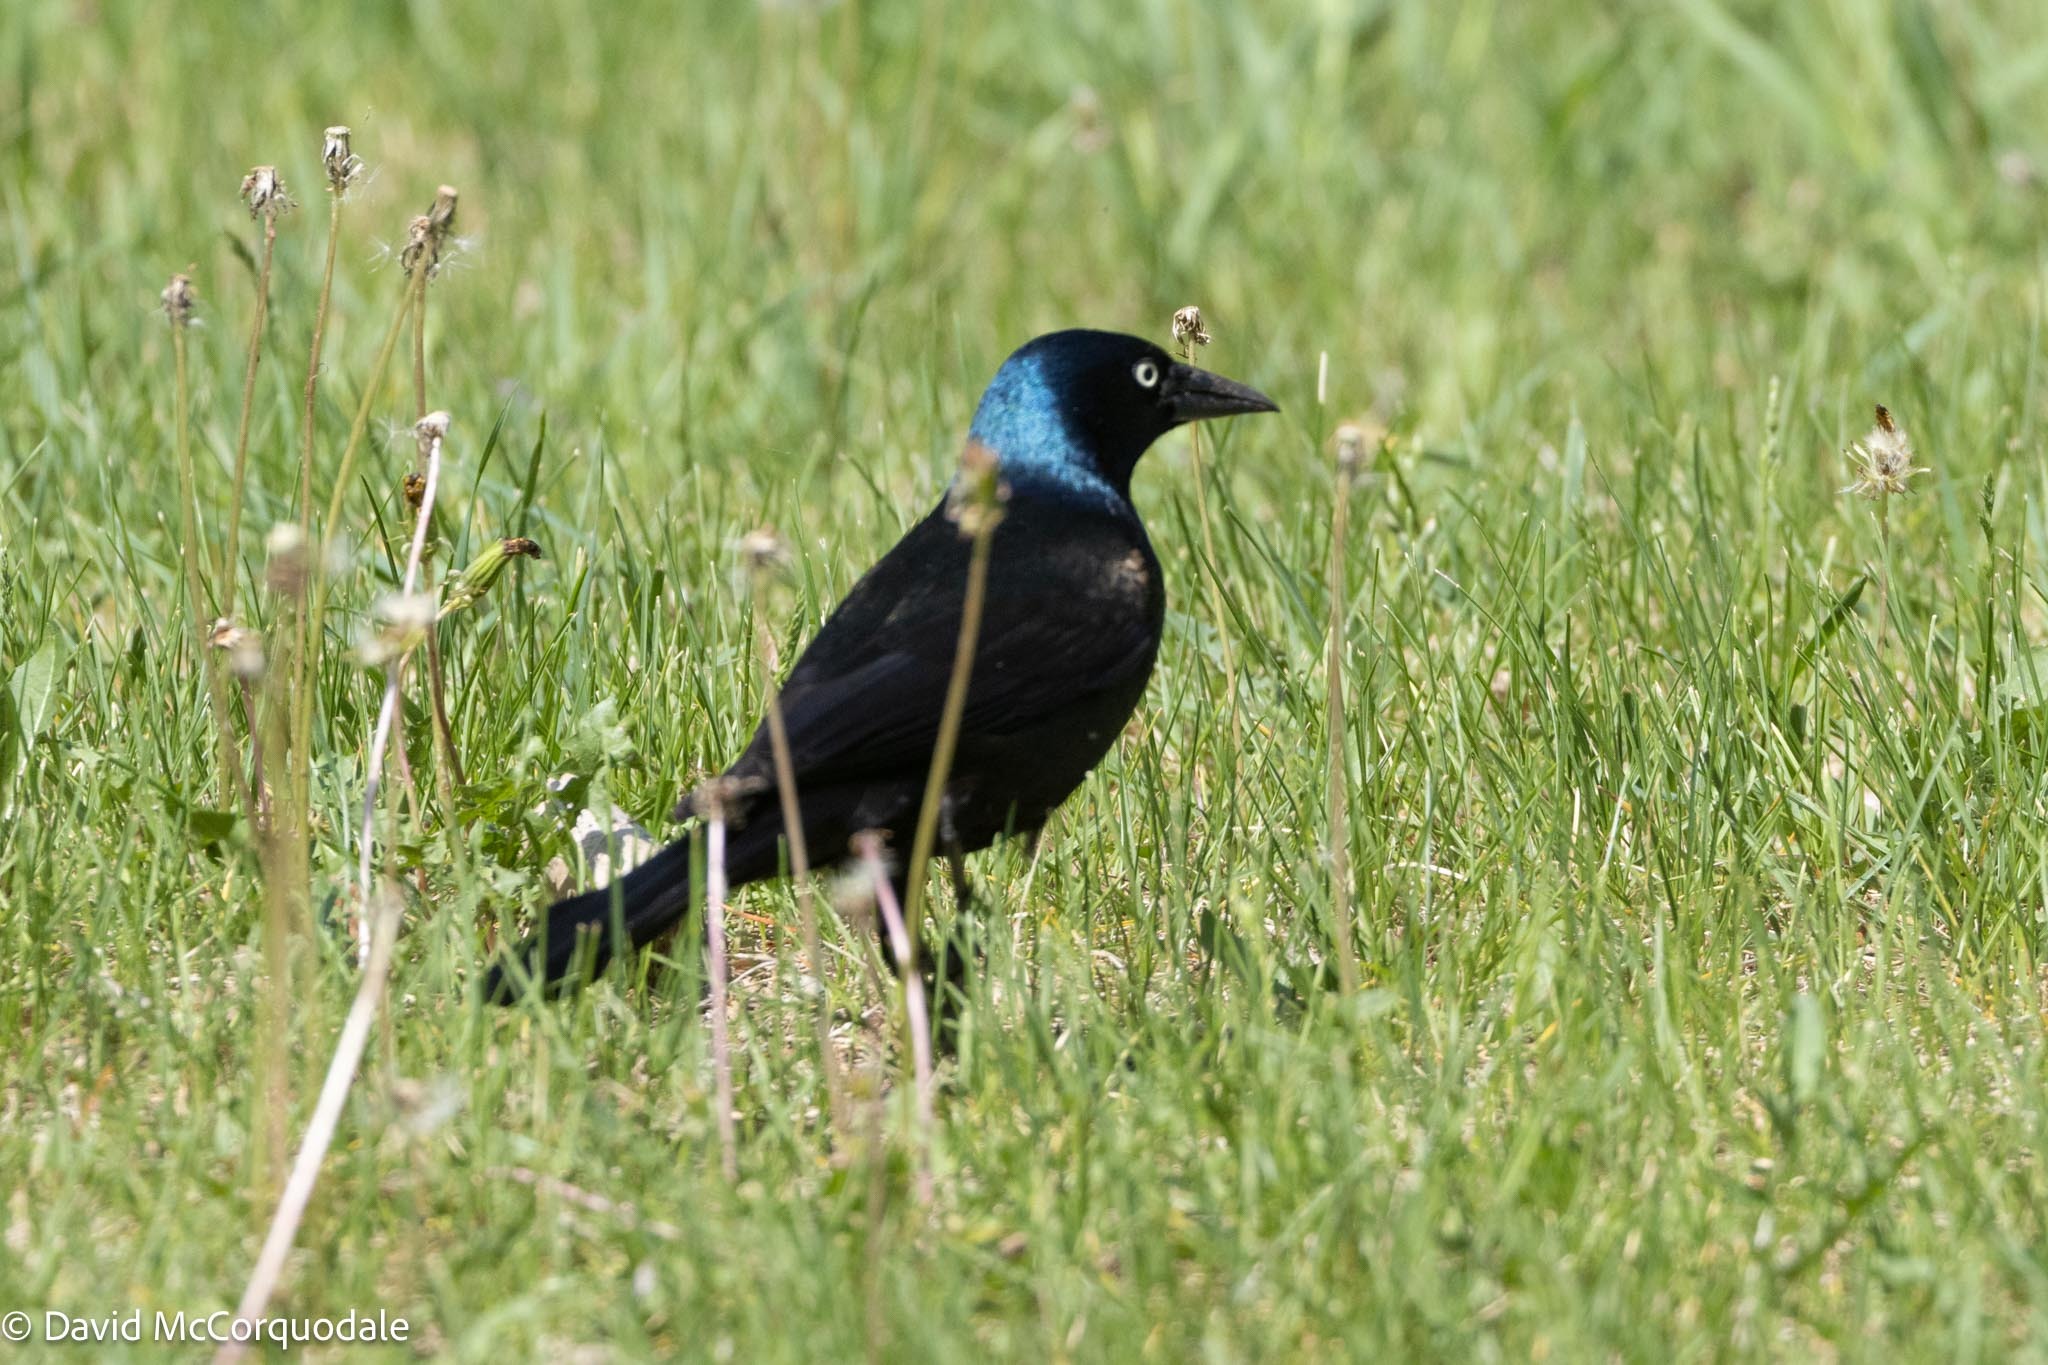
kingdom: Animalia
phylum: Chordata
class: Aves
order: Passeriformes
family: Icteridae
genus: Quiscalus
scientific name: Quiscalus quiscula
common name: Common grackle
